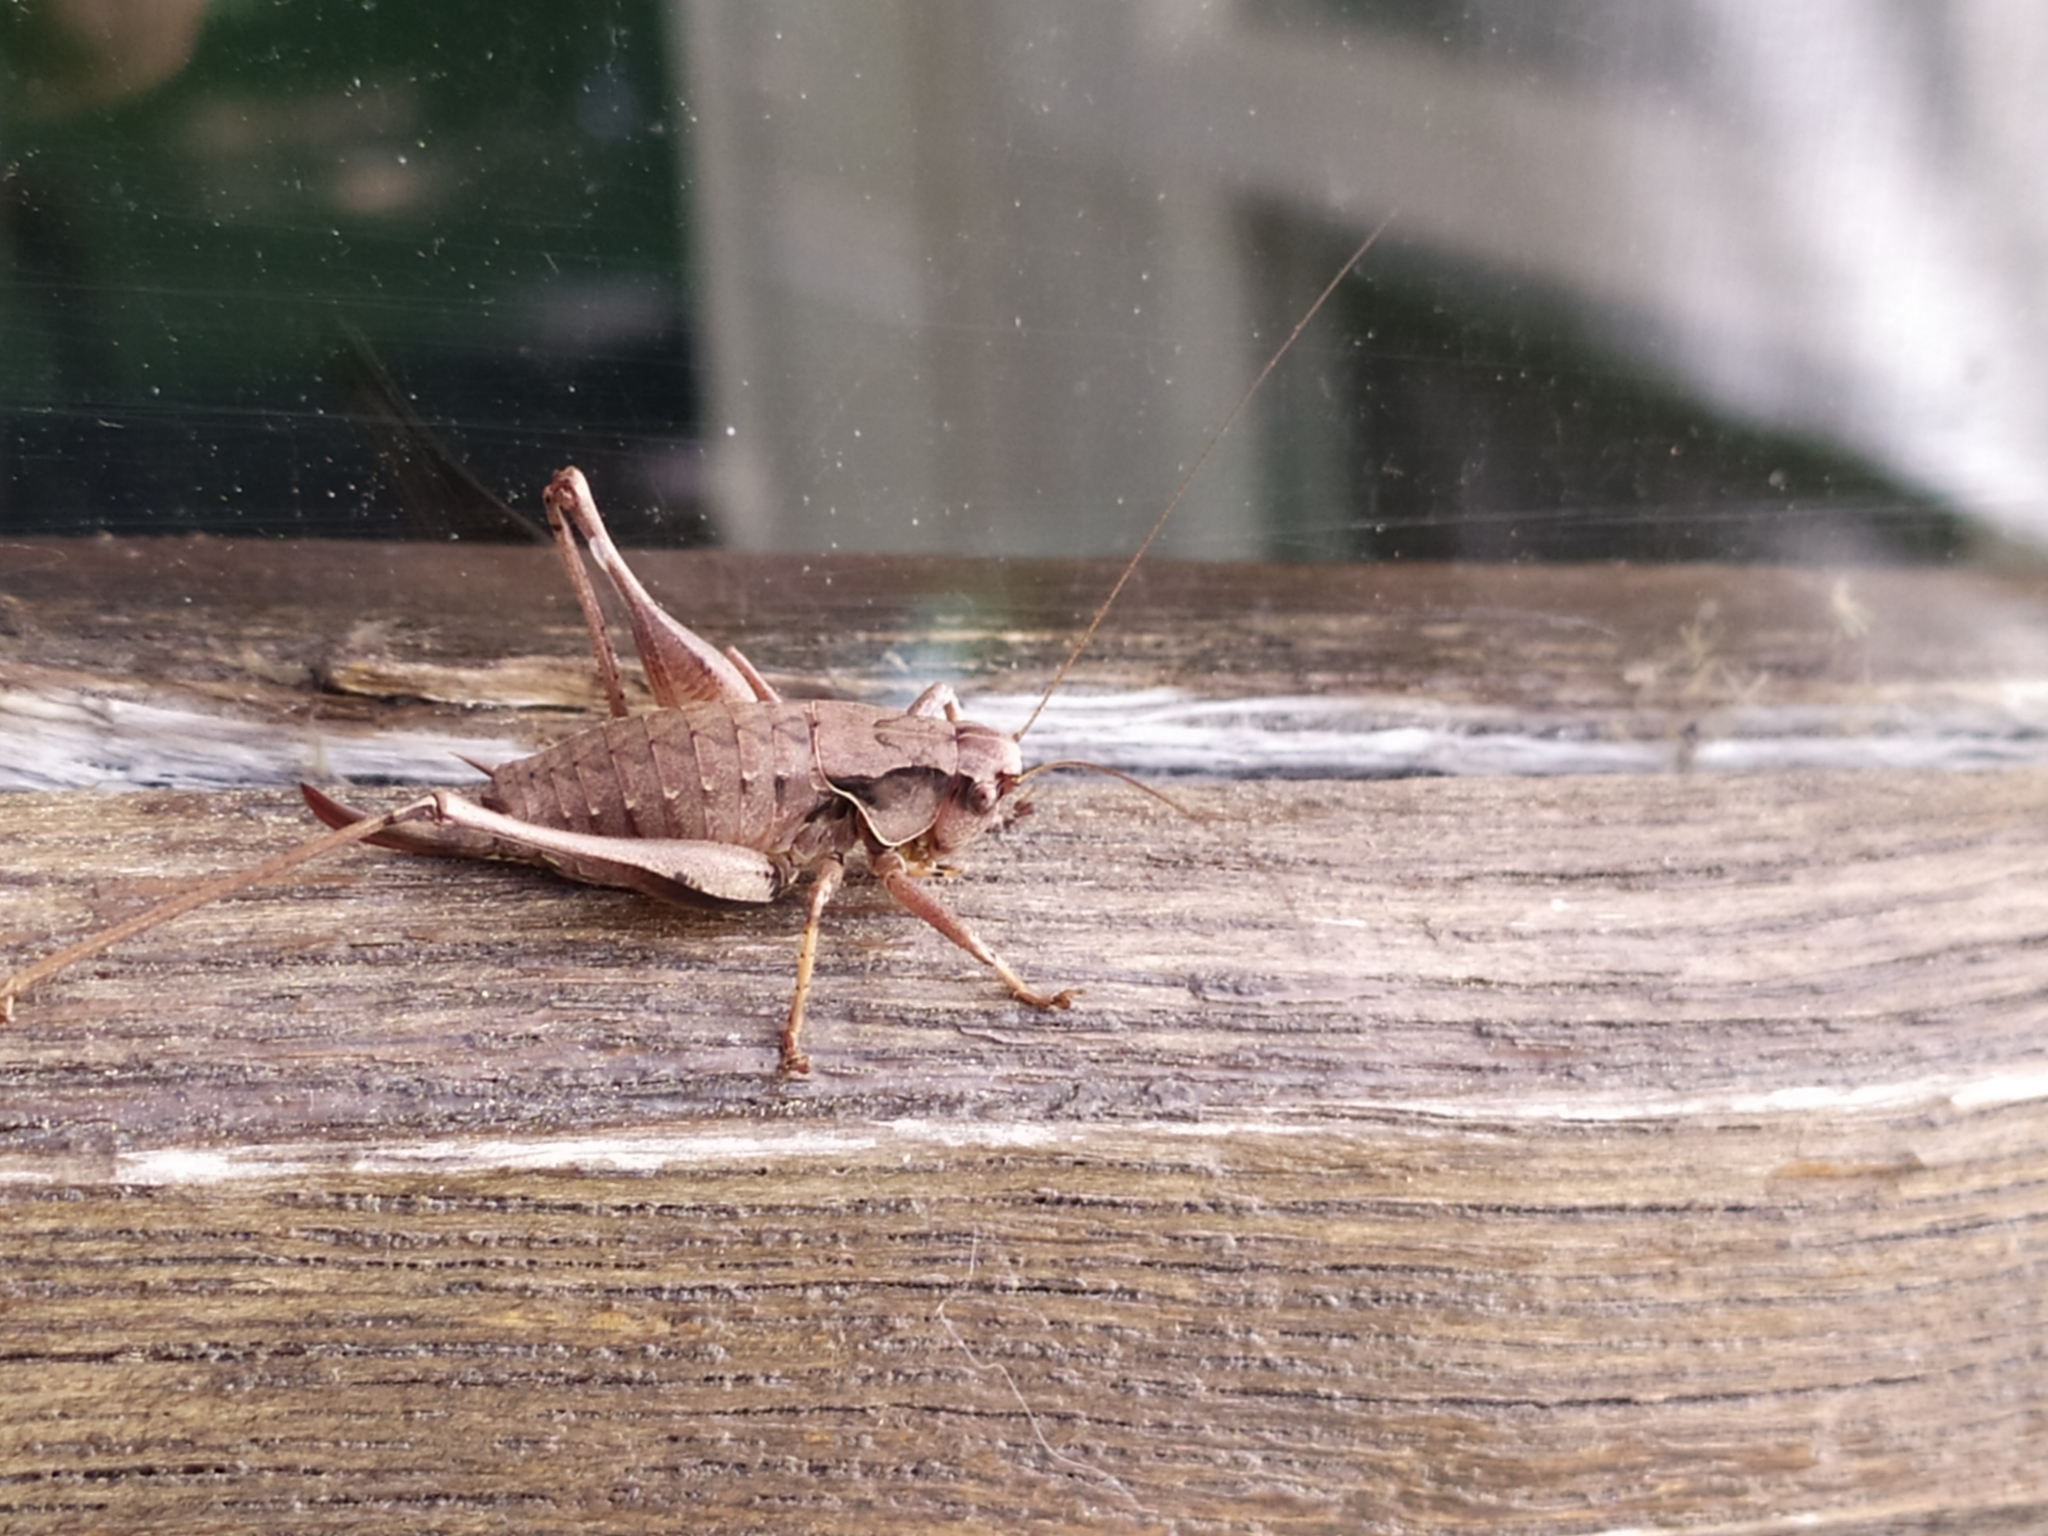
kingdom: Animalia
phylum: Arthropoda
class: Insecta
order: Orthoptera
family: Tettigoniidae
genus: Pholidoptera
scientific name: Pholidoptera griseoaptera
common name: Dark bush-cricket
